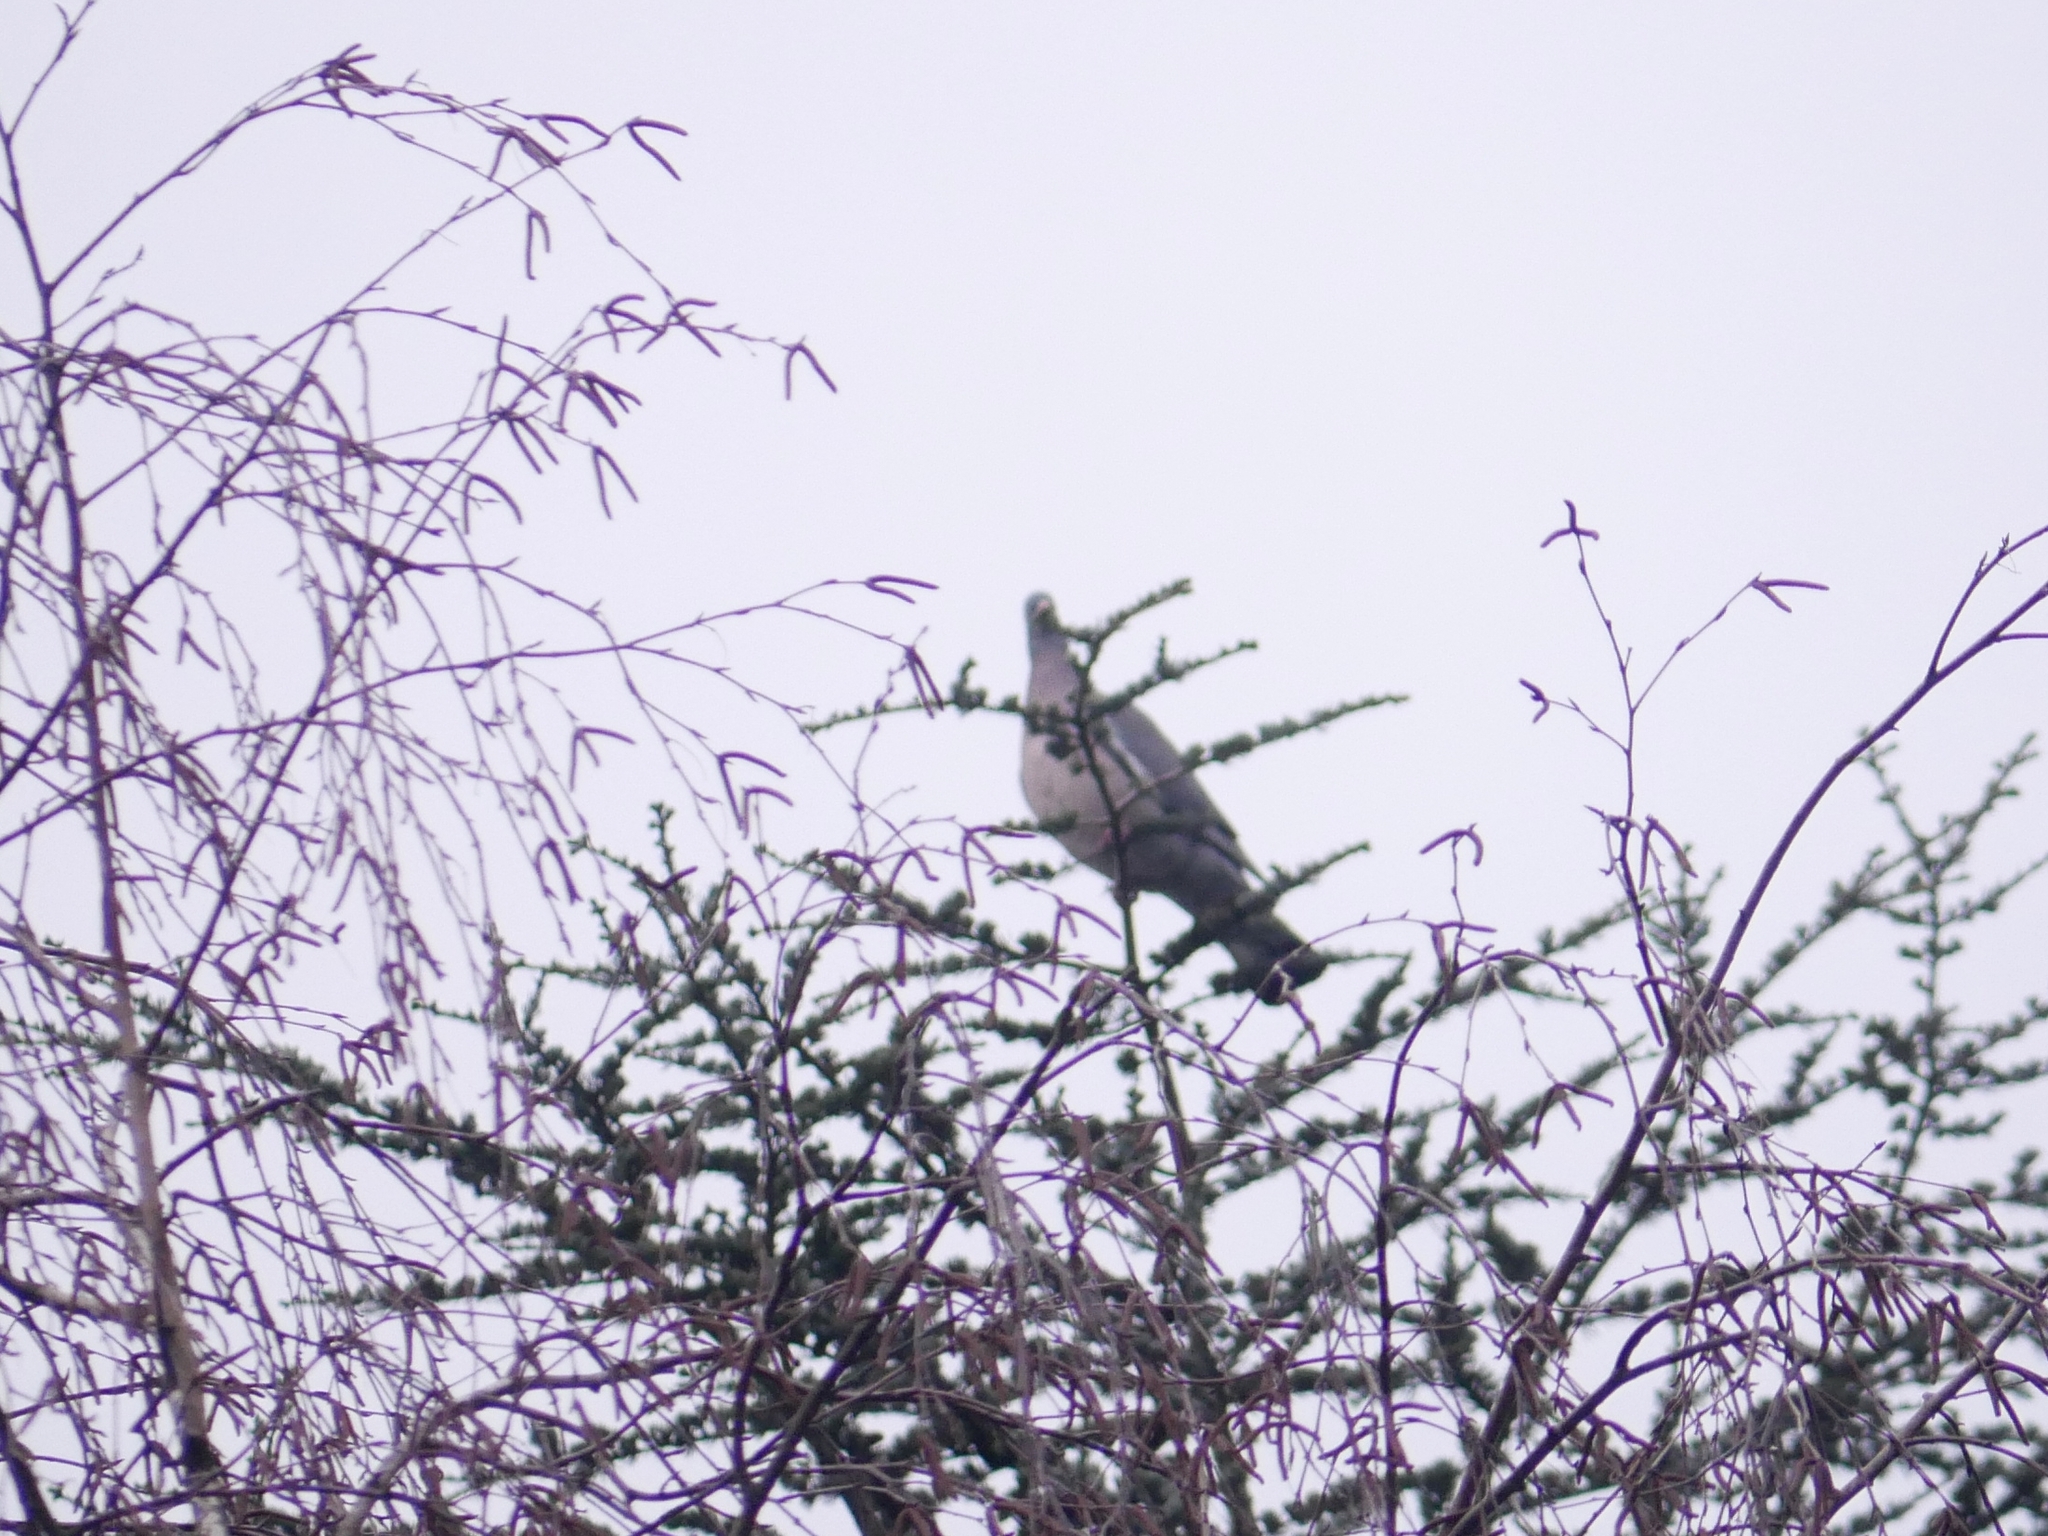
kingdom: Animalia
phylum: Chordata
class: Aves
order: Columbiformes
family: Columbidae
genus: Columba
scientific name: Columba palumbus
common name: Common wood pigeon
